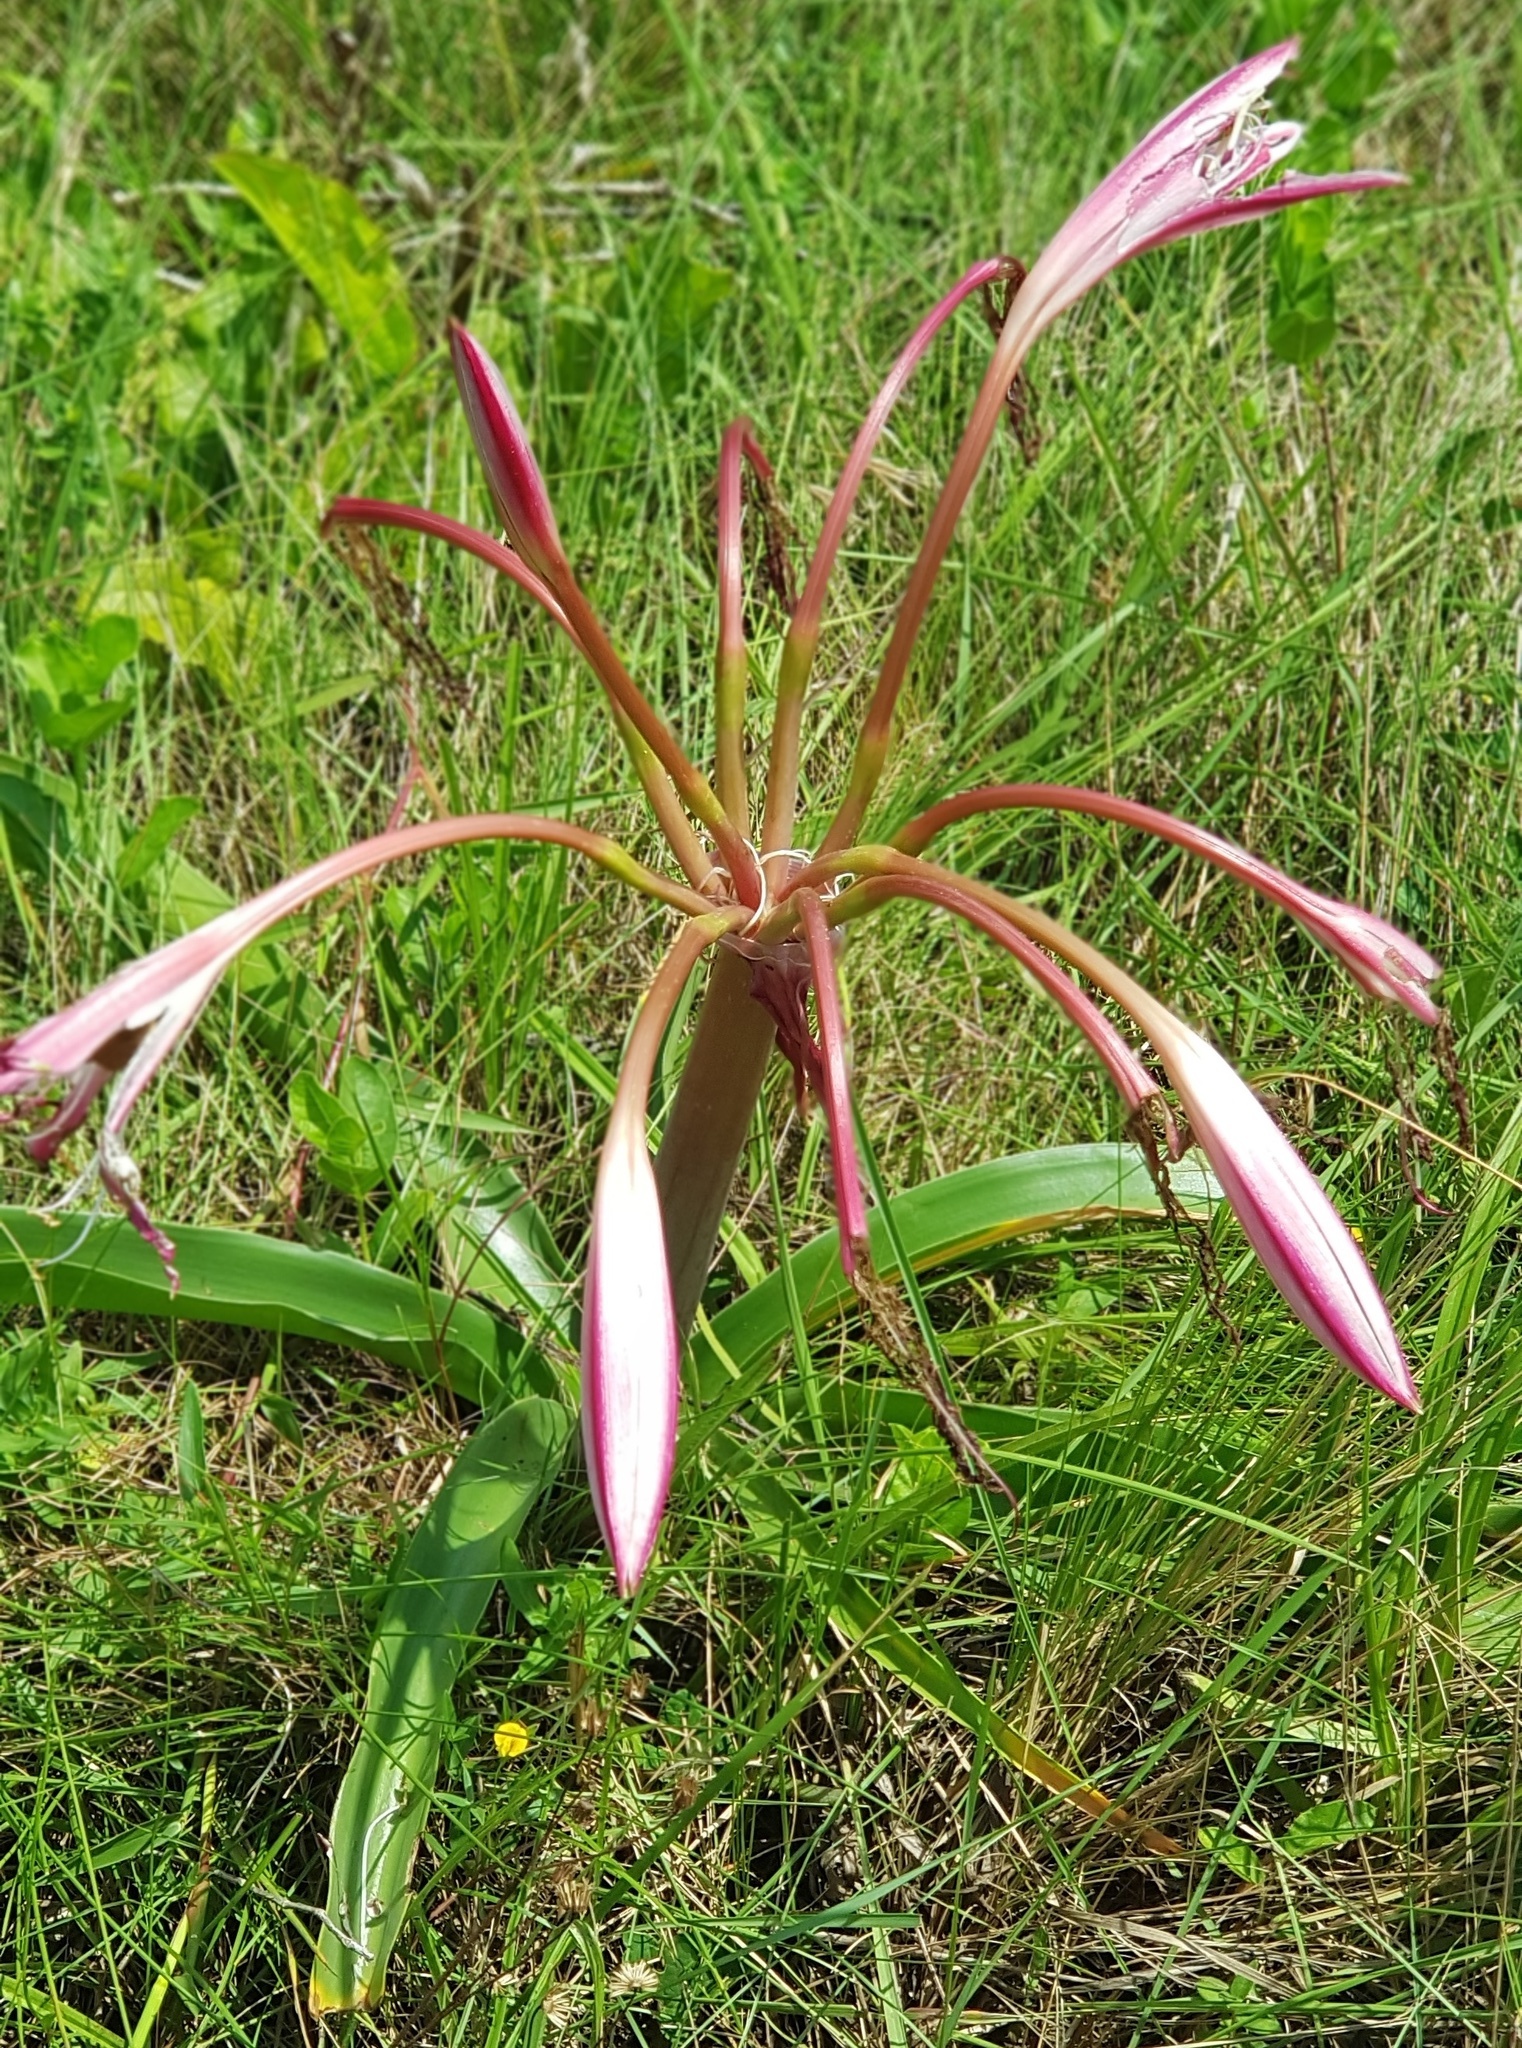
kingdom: Plantae
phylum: Tracheophyta
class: Liliopsida
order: Asparagales
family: Amaryllidaceae
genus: Crinum
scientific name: Crinum stuhlmannii
